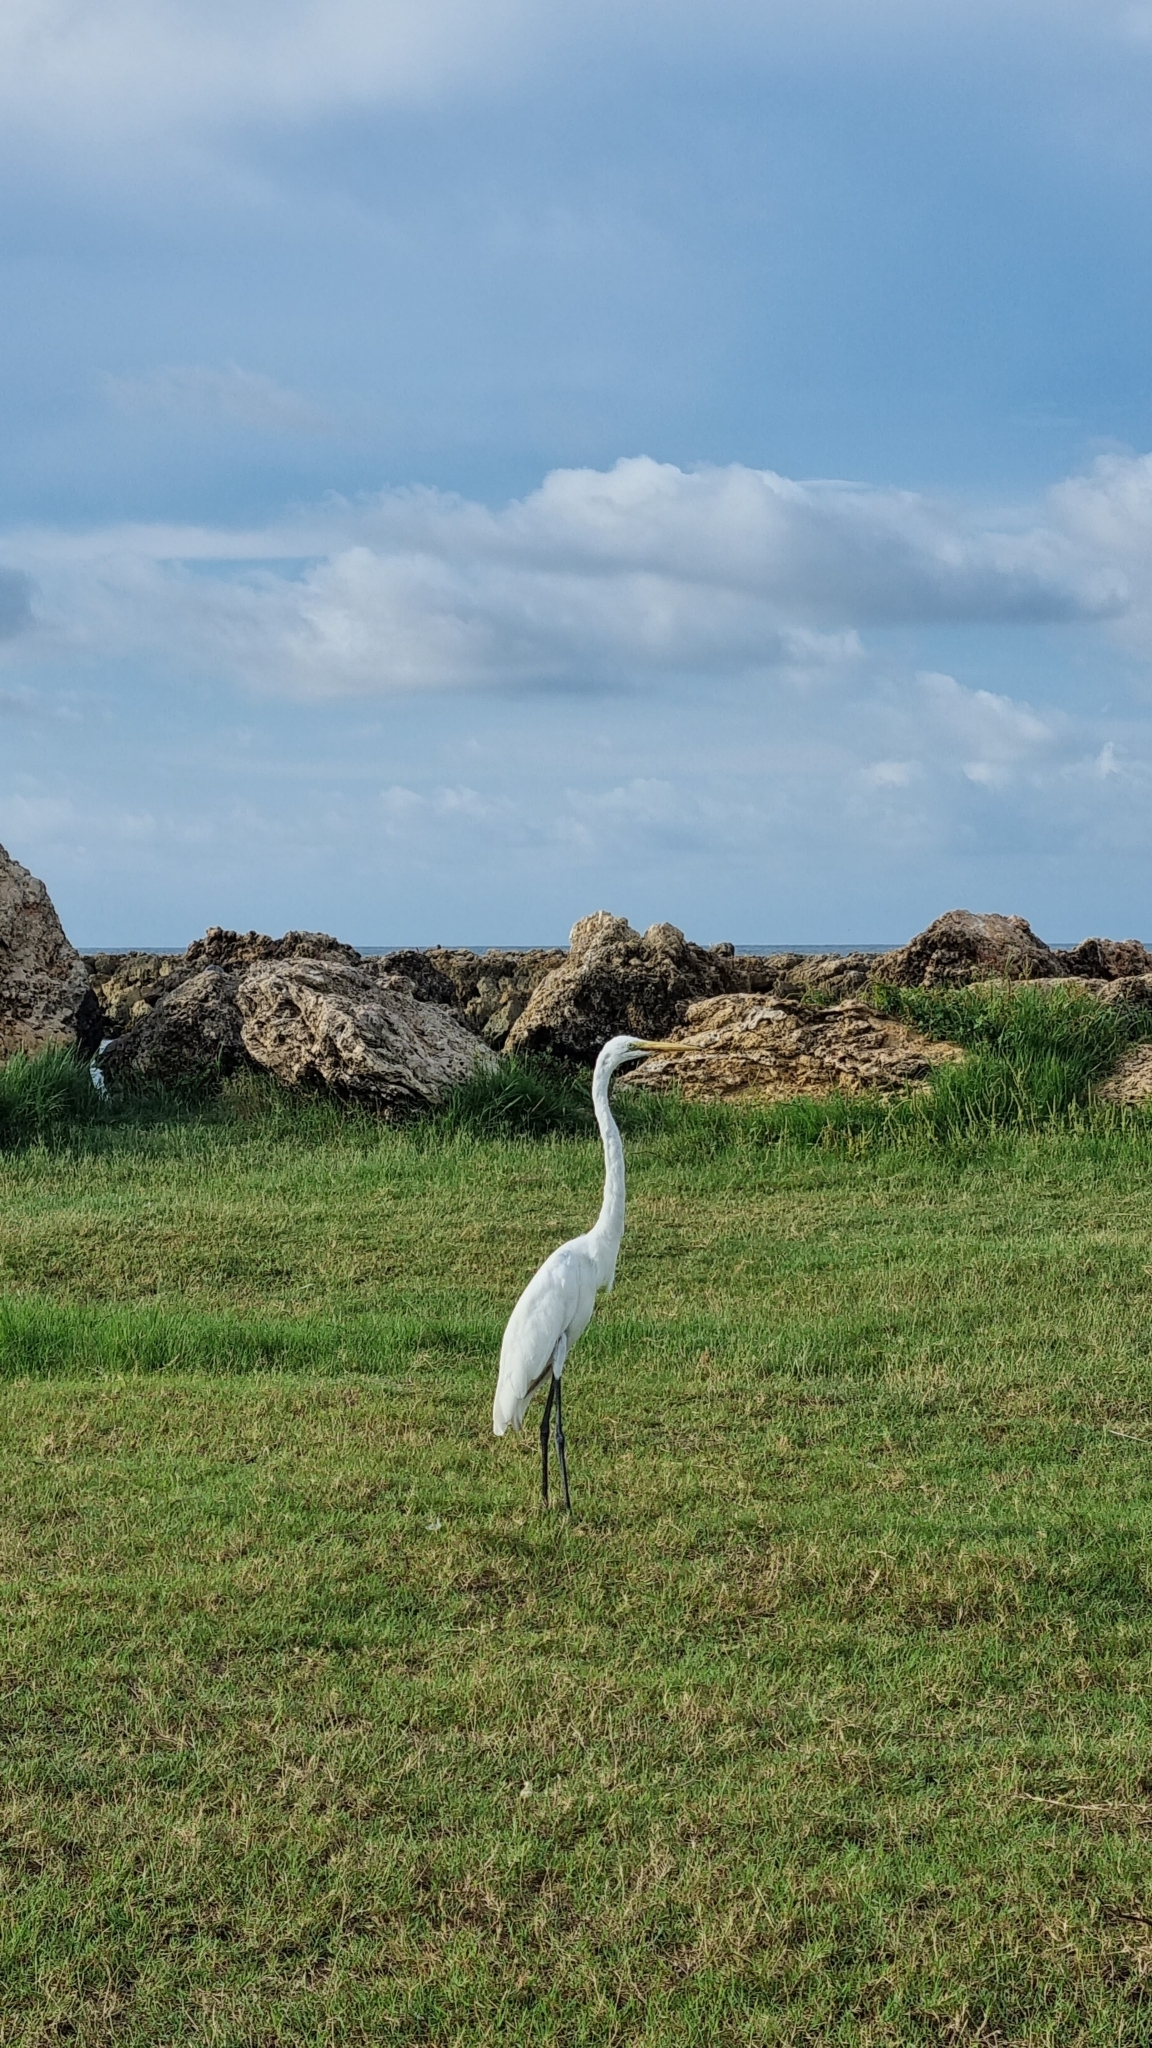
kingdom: Animalia
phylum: Chordata
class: Aves
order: Pelecaniformes
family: Ardeidae
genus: Ardea
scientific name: Ardea alba
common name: Great egret
